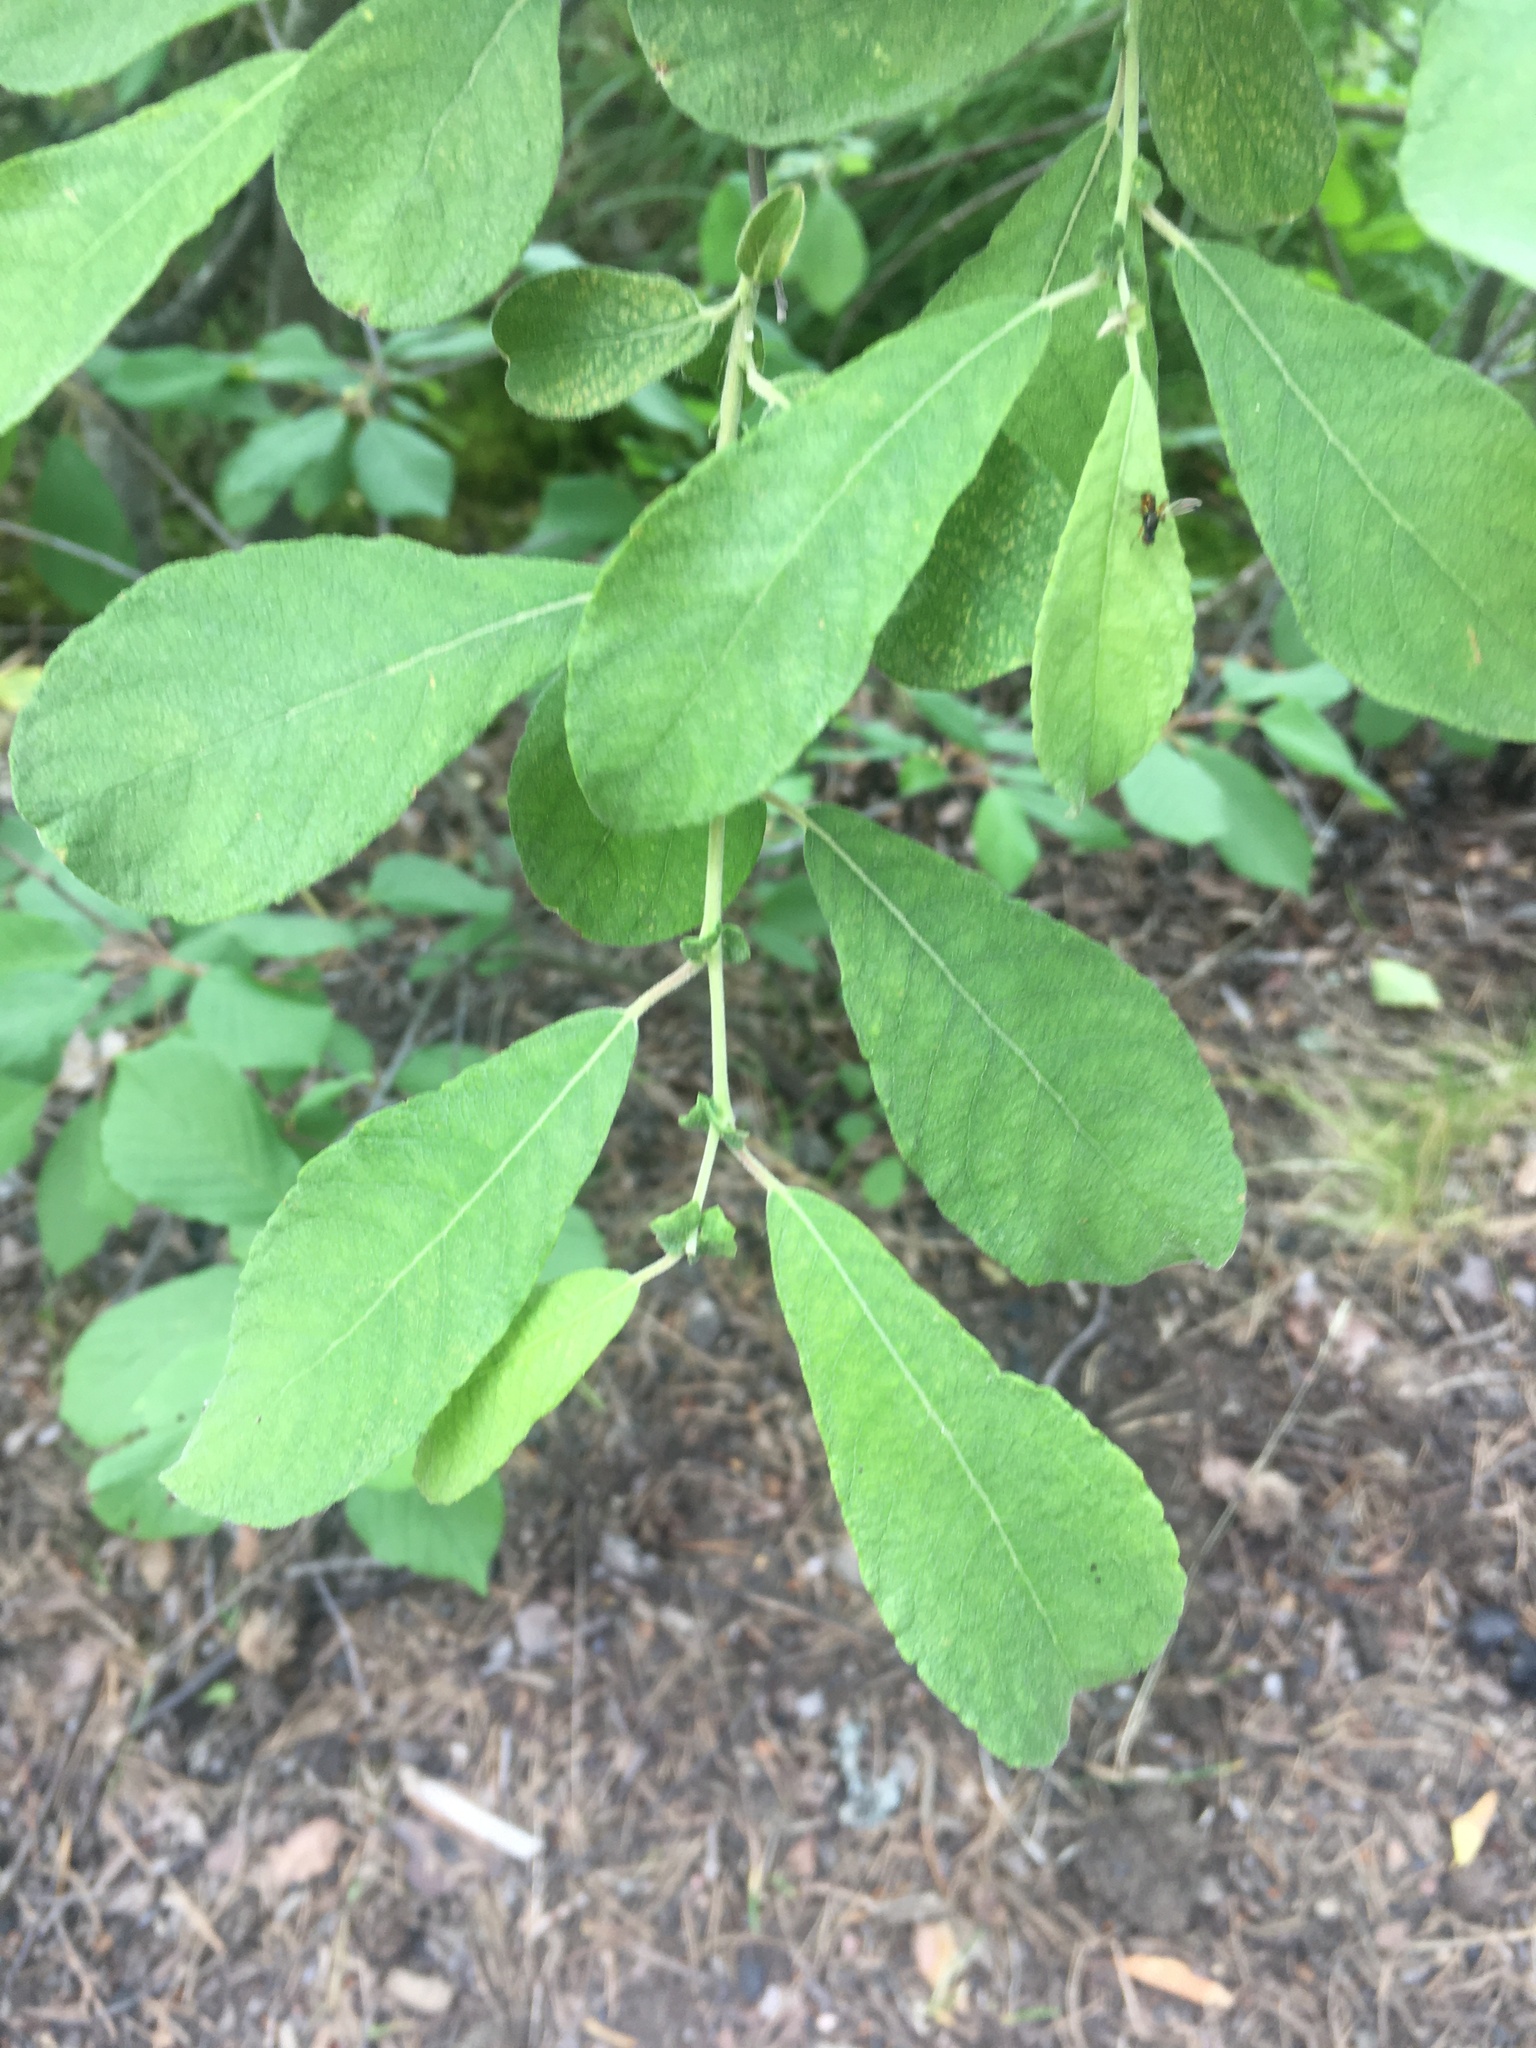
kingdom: Plantae
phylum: Tracheophyta
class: Magnoliopsida
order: Malpighiales
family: Salicaceae
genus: Salix
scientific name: Salix aurita
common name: Eared willow
